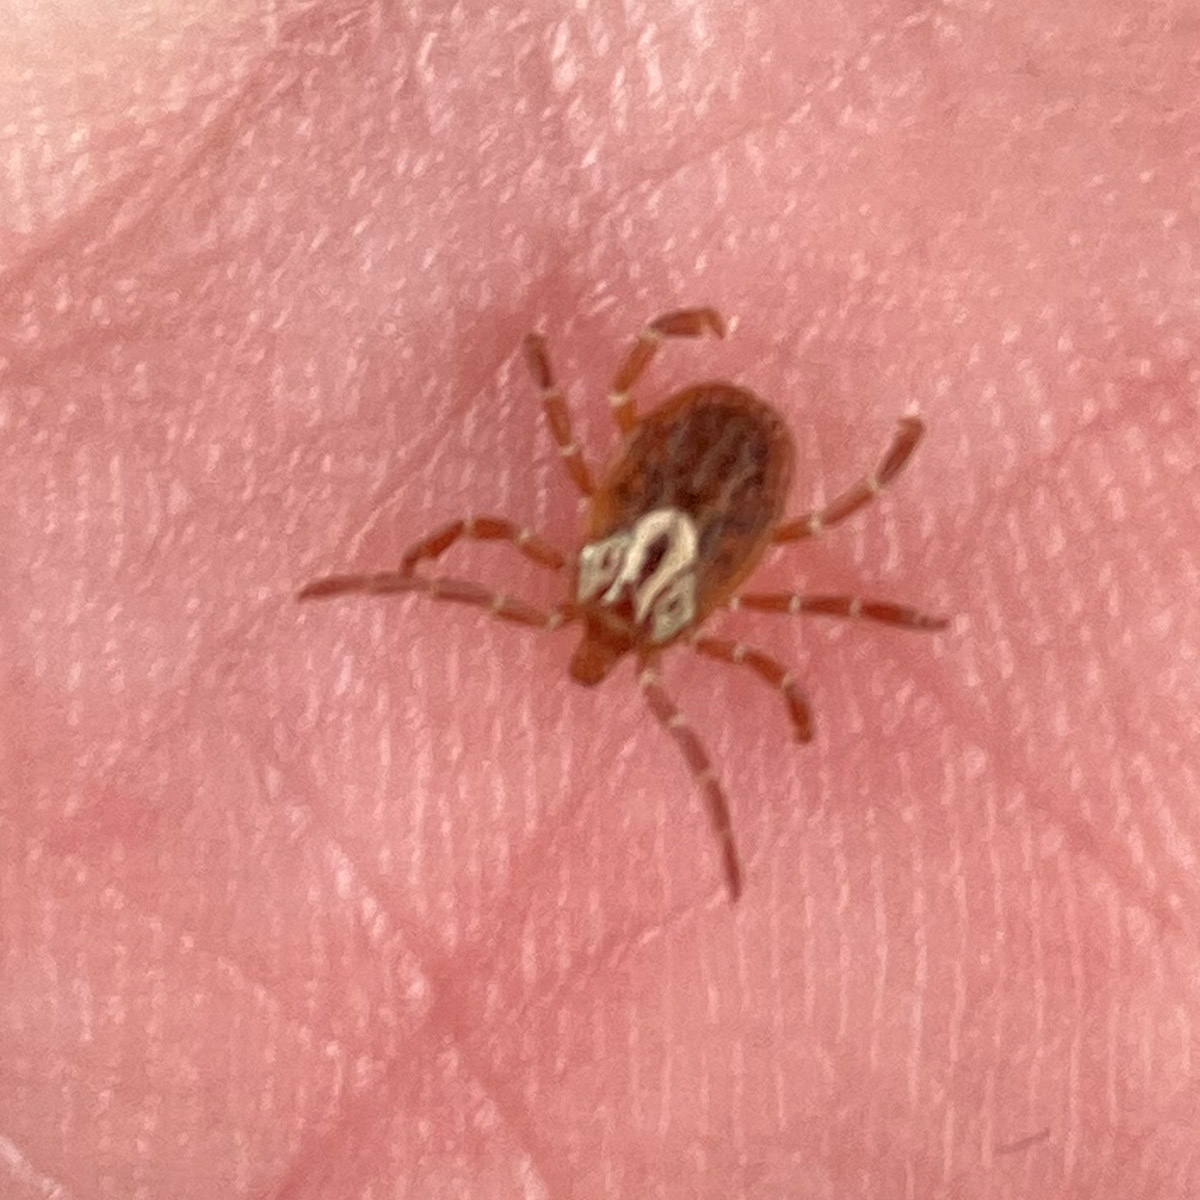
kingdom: Animalia
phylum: Arthropoda
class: Arachnida
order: Ixodida
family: Ixodidae
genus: Amblyomma
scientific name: Amblyomma maculatum
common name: Gulf coast tick
